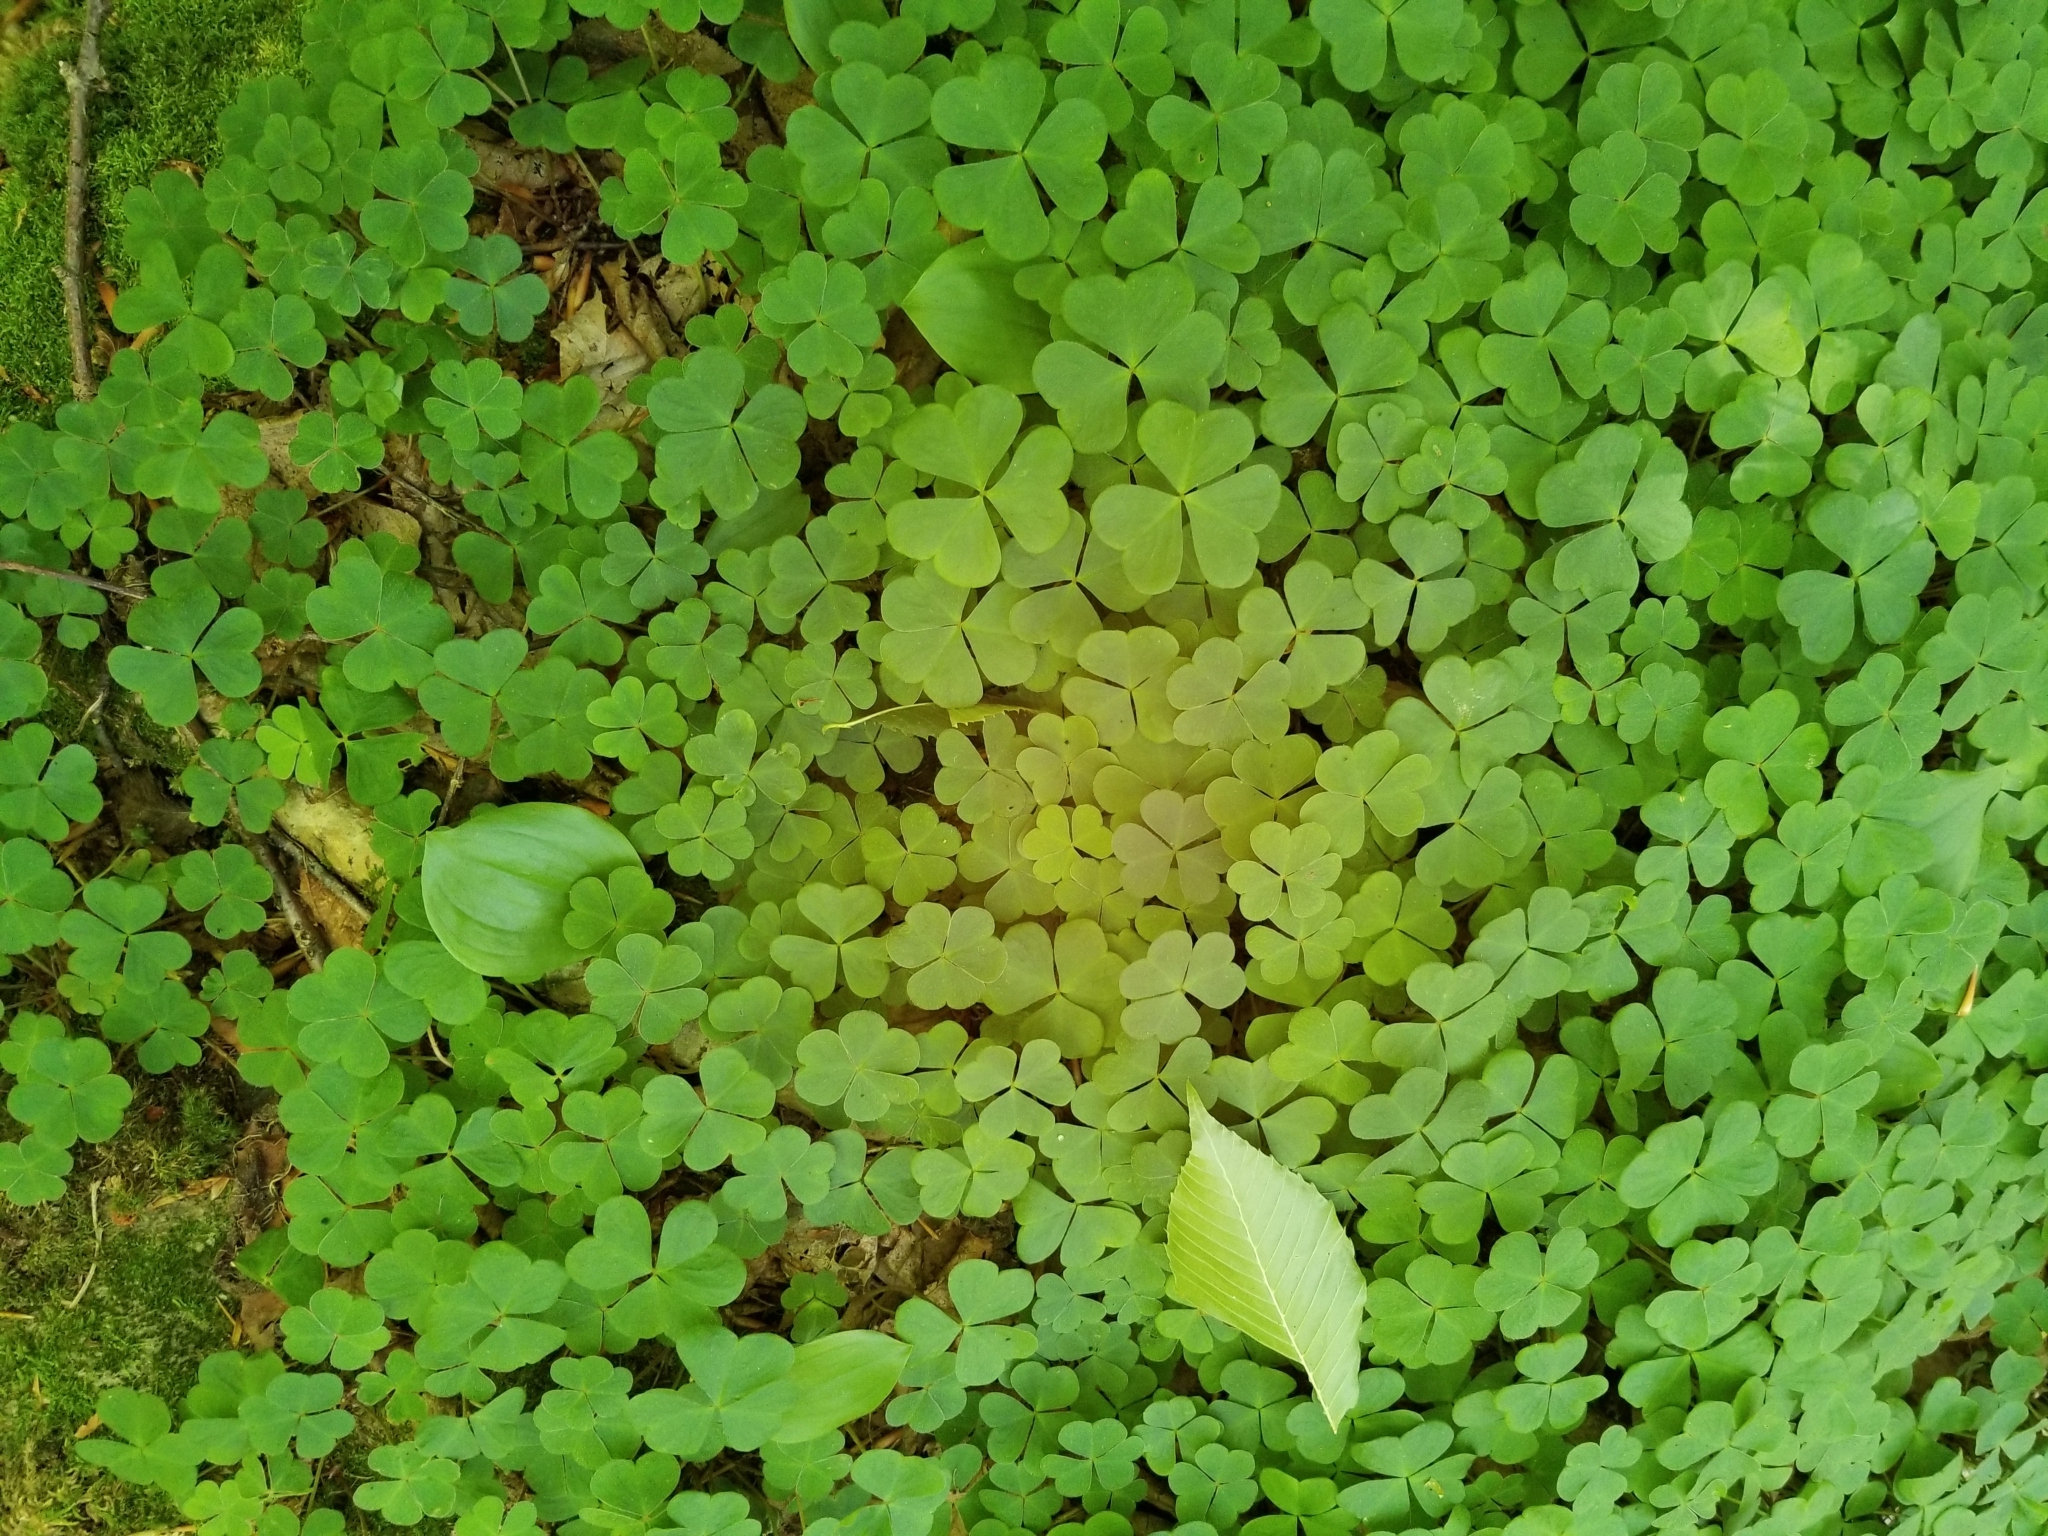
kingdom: Plantae
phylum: Tracheophyta
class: Magnoliopsida
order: Oxalidales
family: Oxalidaceae
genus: Oxalis
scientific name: Oxalis montana
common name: American wood-sorrel
